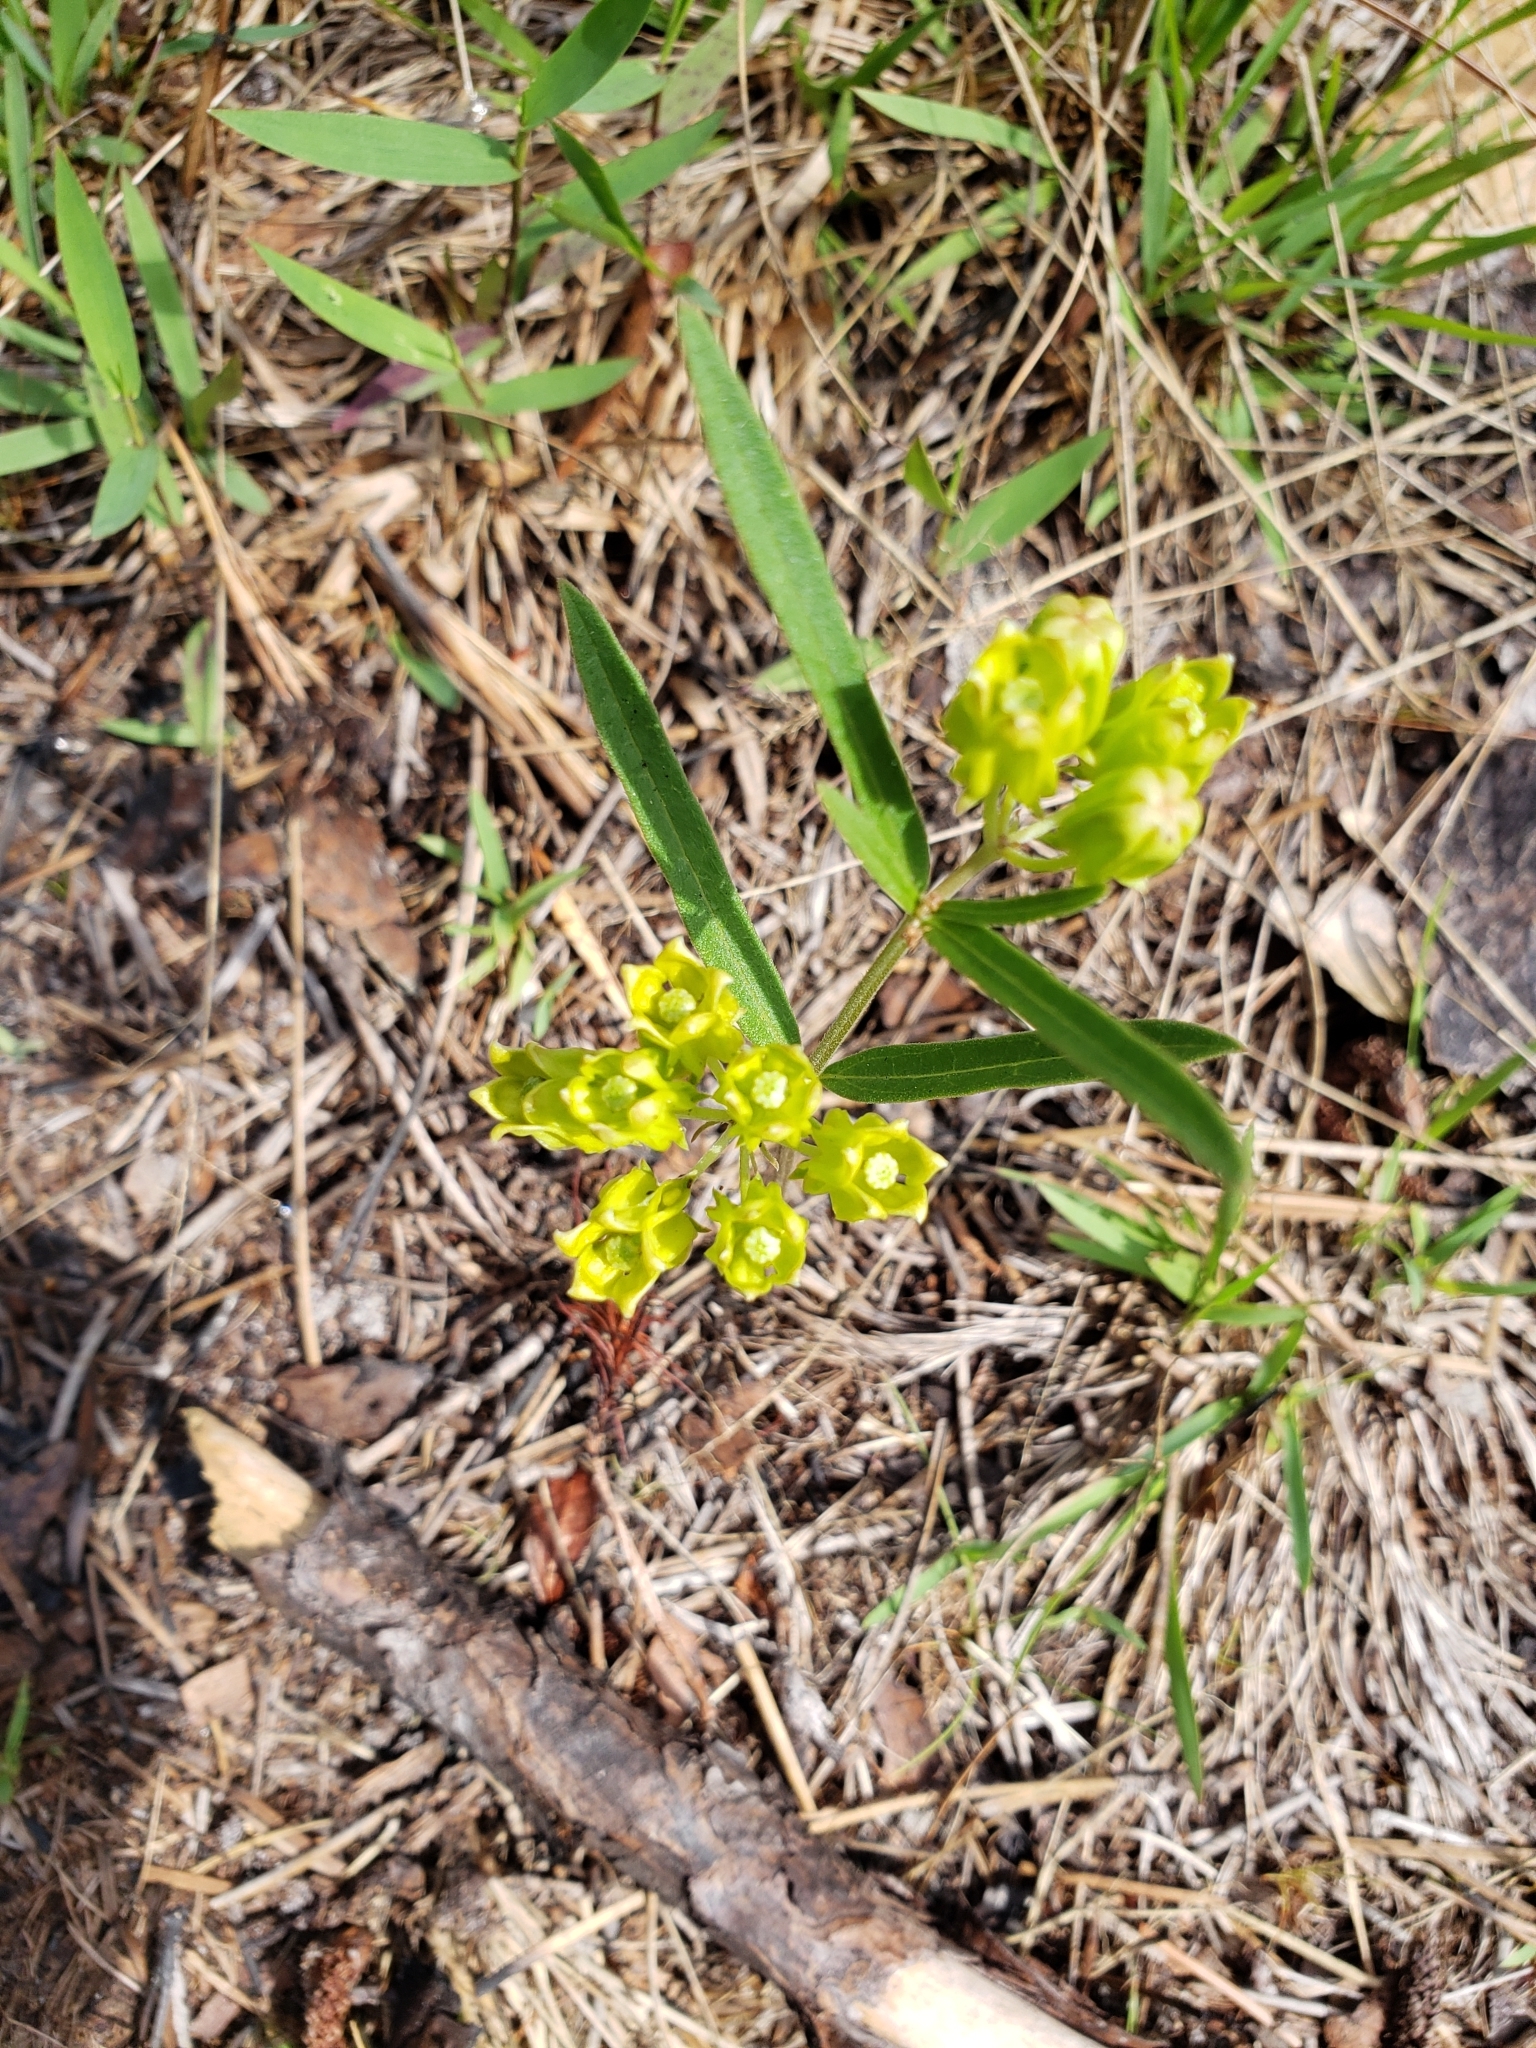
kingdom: Plantae
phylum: Tracheophyta
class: Magnoliopsida
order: Gentianales
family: Apocynaceae
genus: Asclepias
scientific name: Asclepias pedicellata
